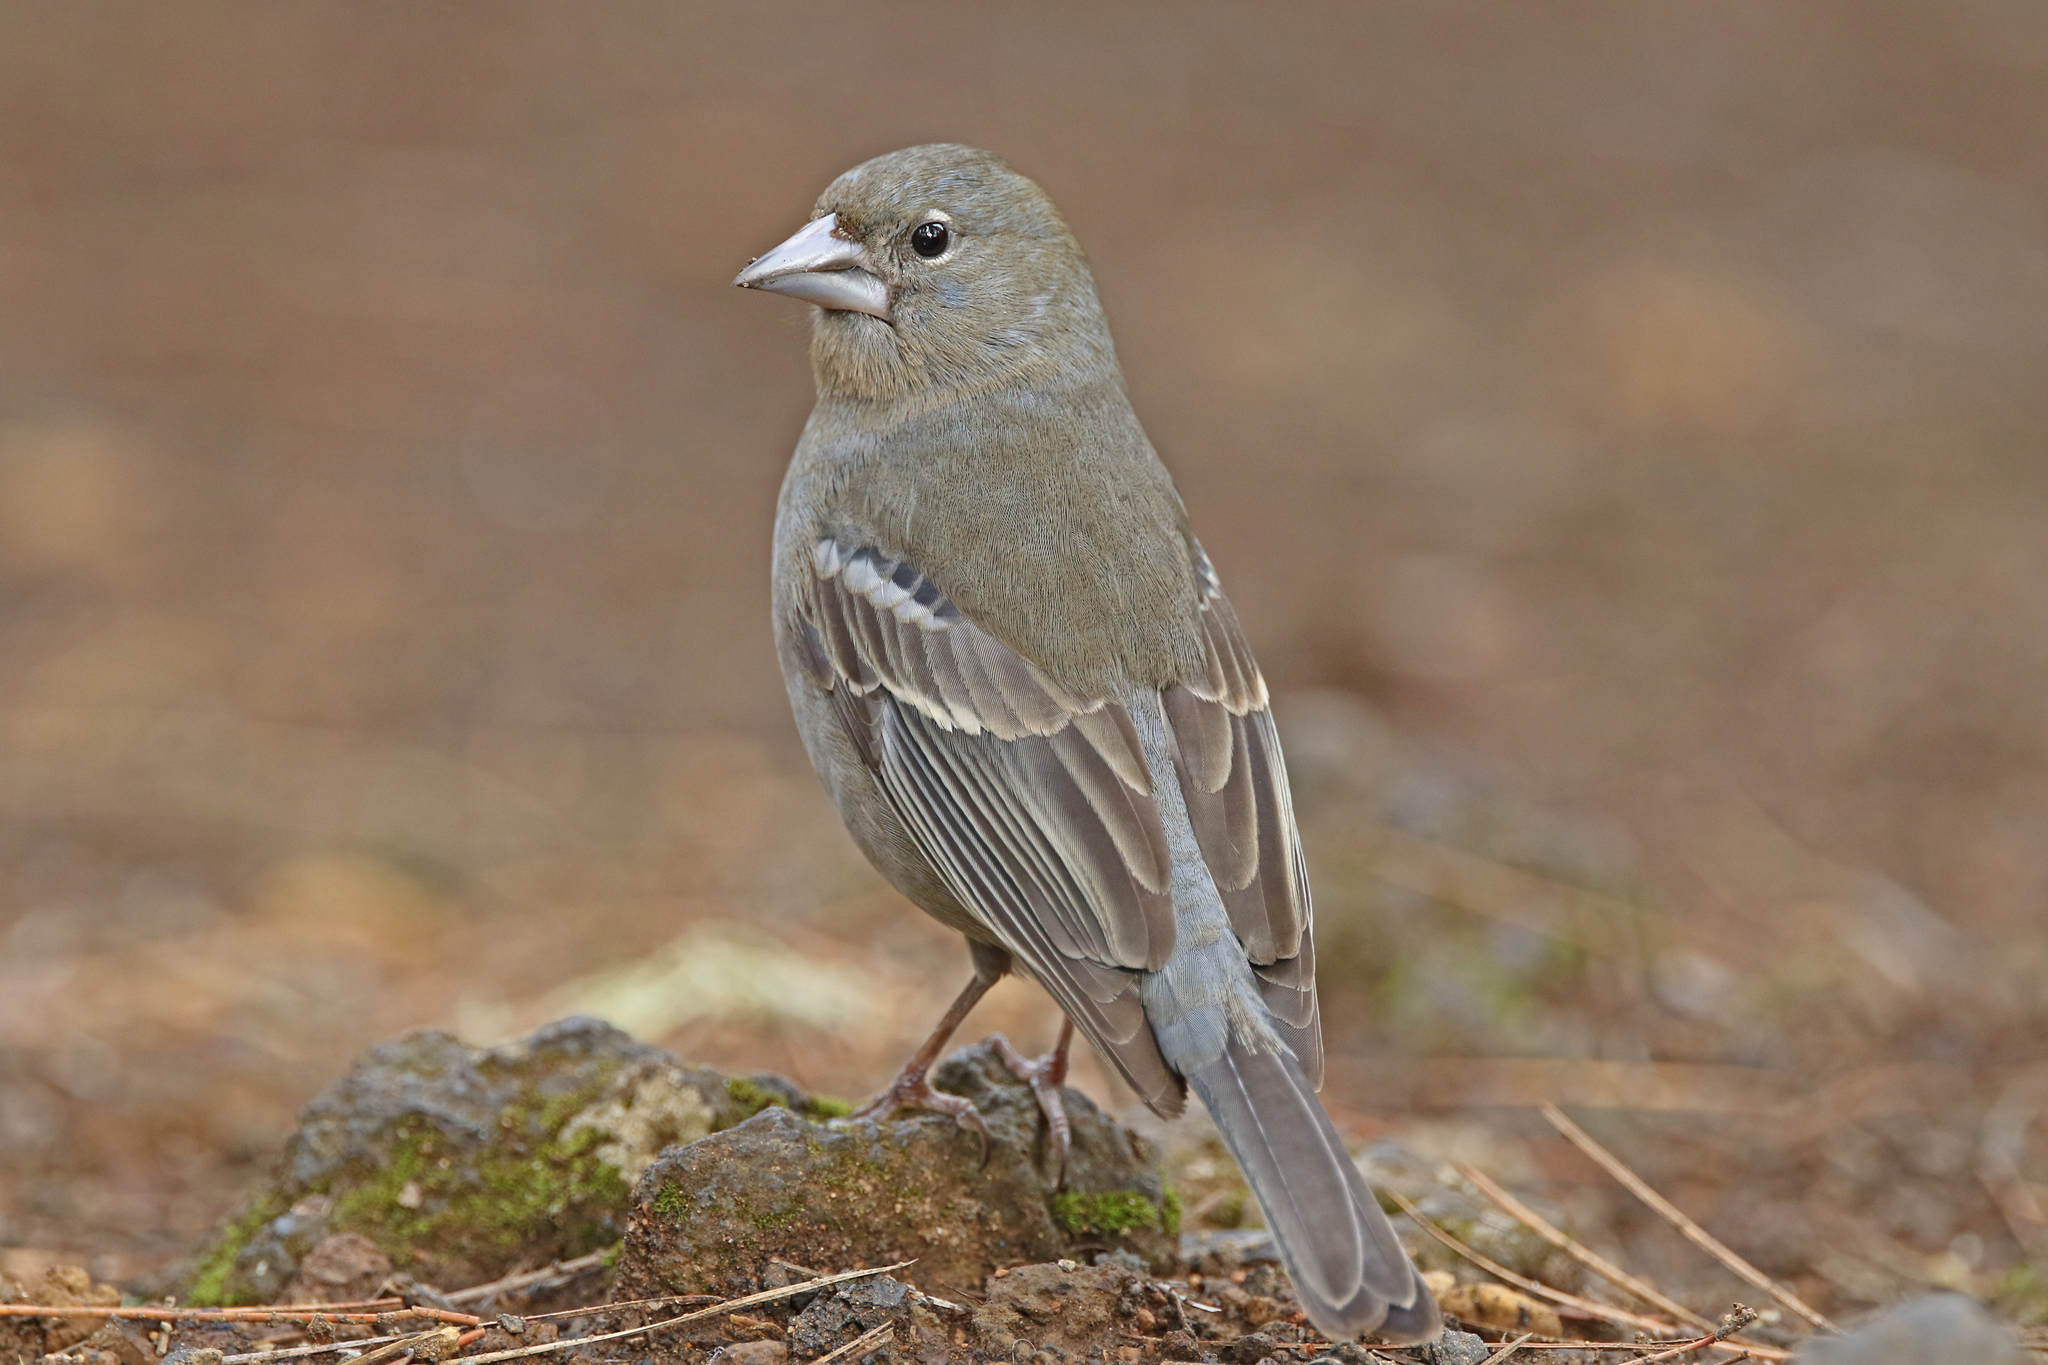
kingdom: Animalia
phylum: Chordata
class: Aves
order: Passeriformes
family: Fringillidae
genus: Fringilla
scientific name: Fringilla teydea
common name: Blue chaffinch
